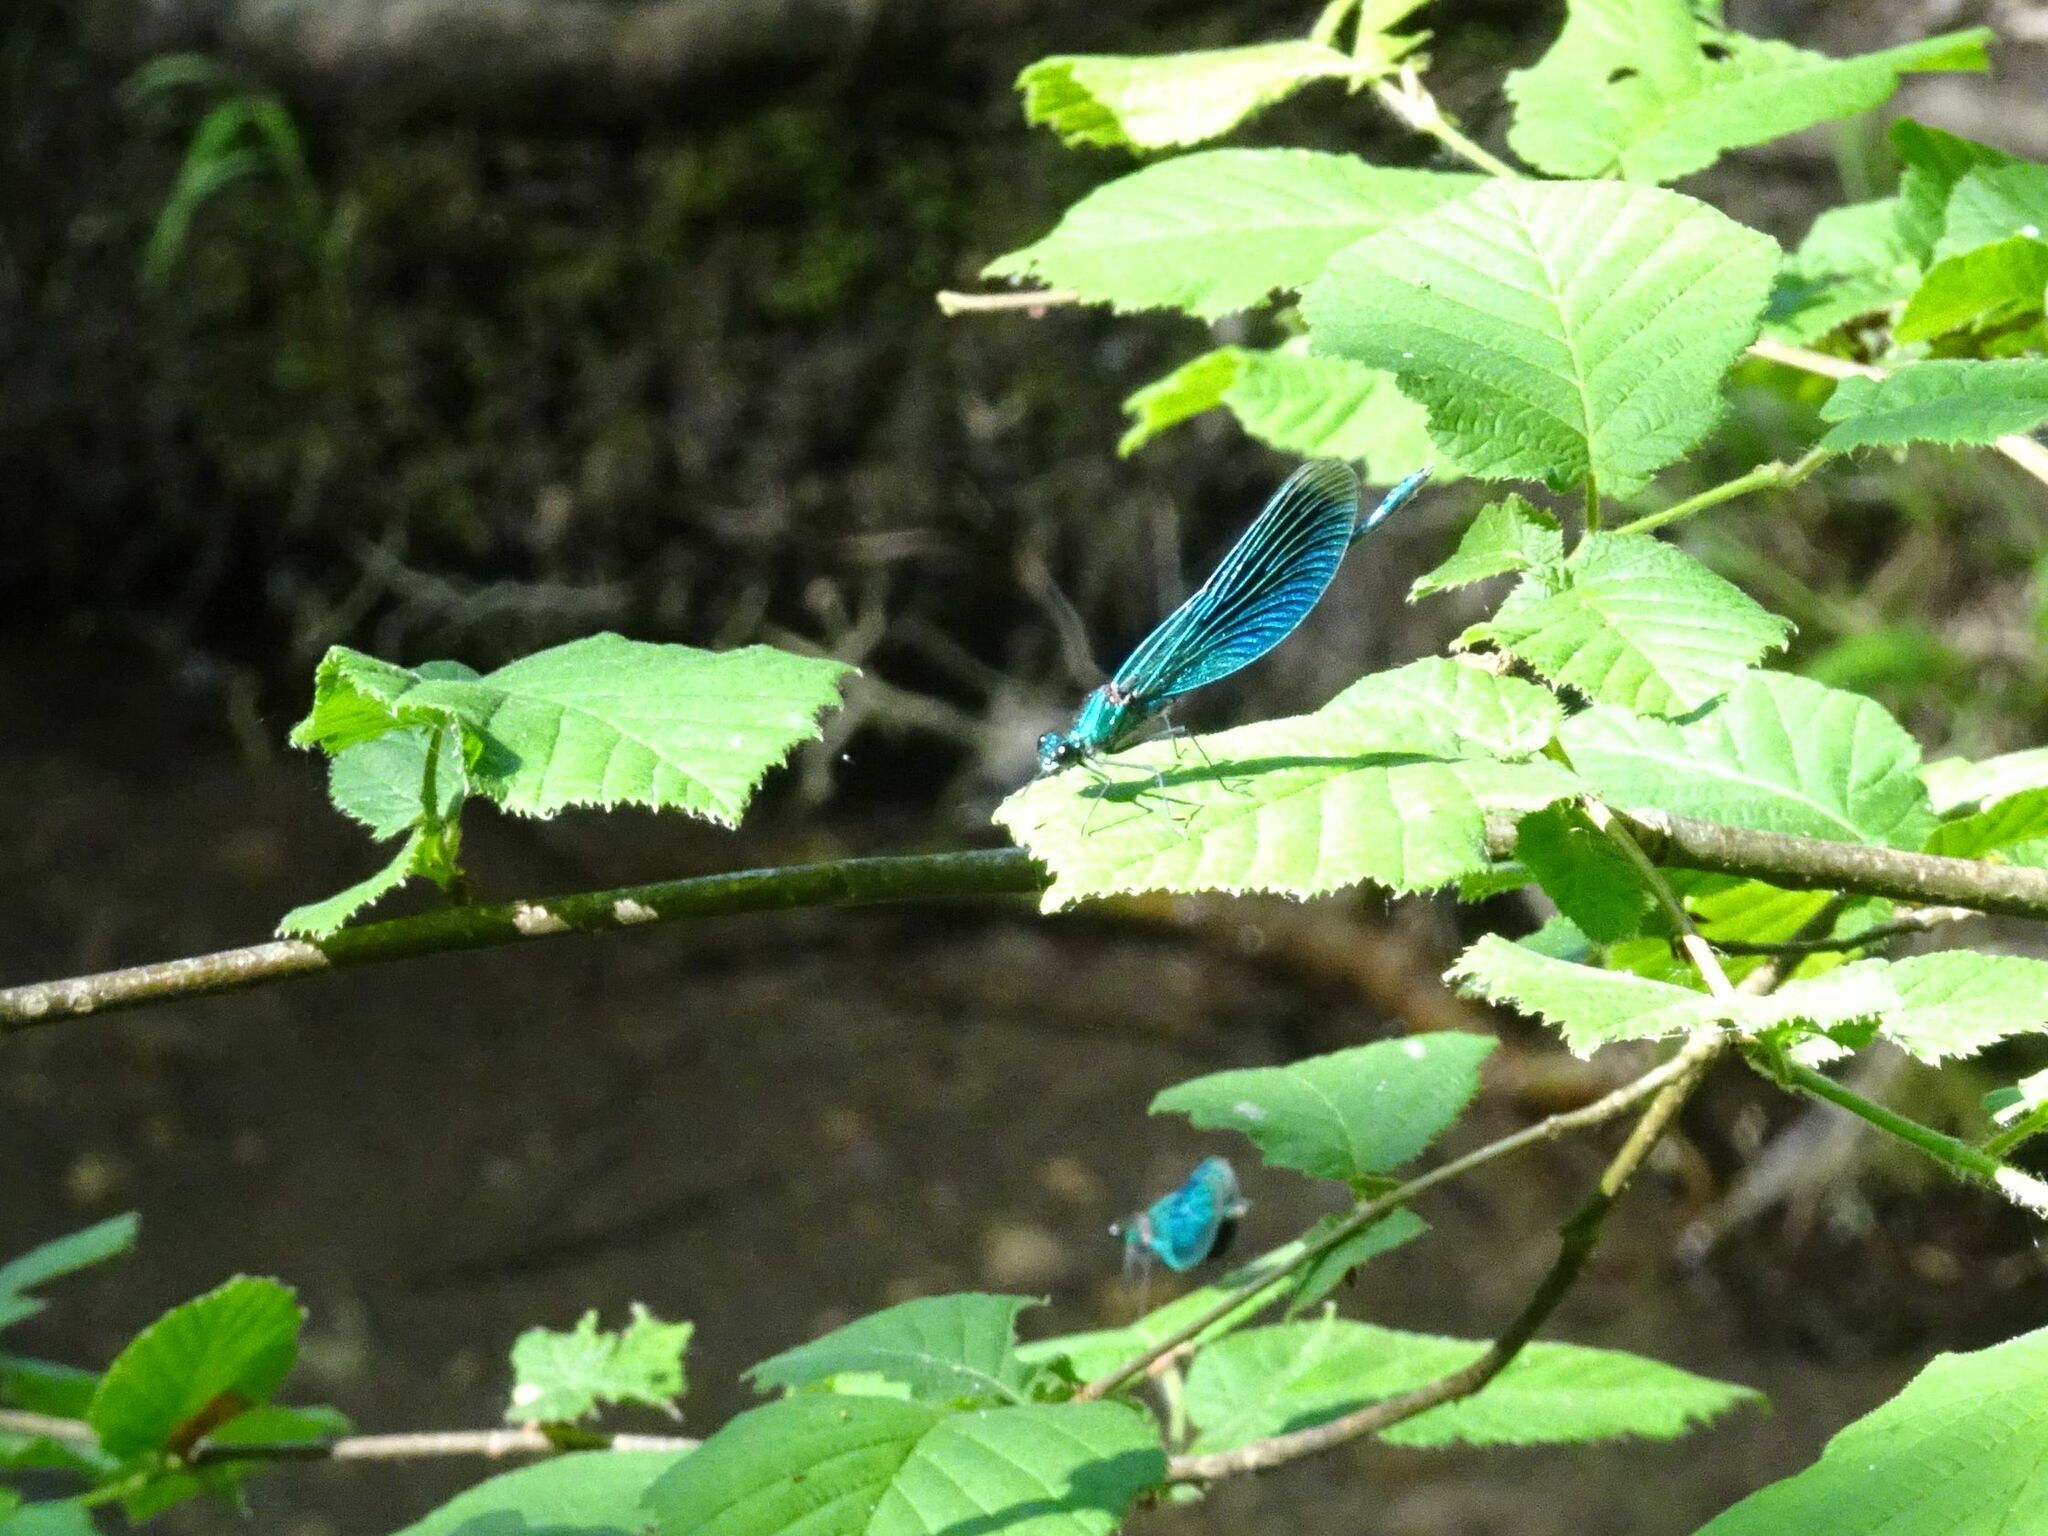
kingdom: Animalia
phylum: Arthropoda
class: Insecta
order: Odonata
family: Calopterygidae
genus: Calopteryx
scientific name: Calopteryx splendens
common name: Banded demoiselle
